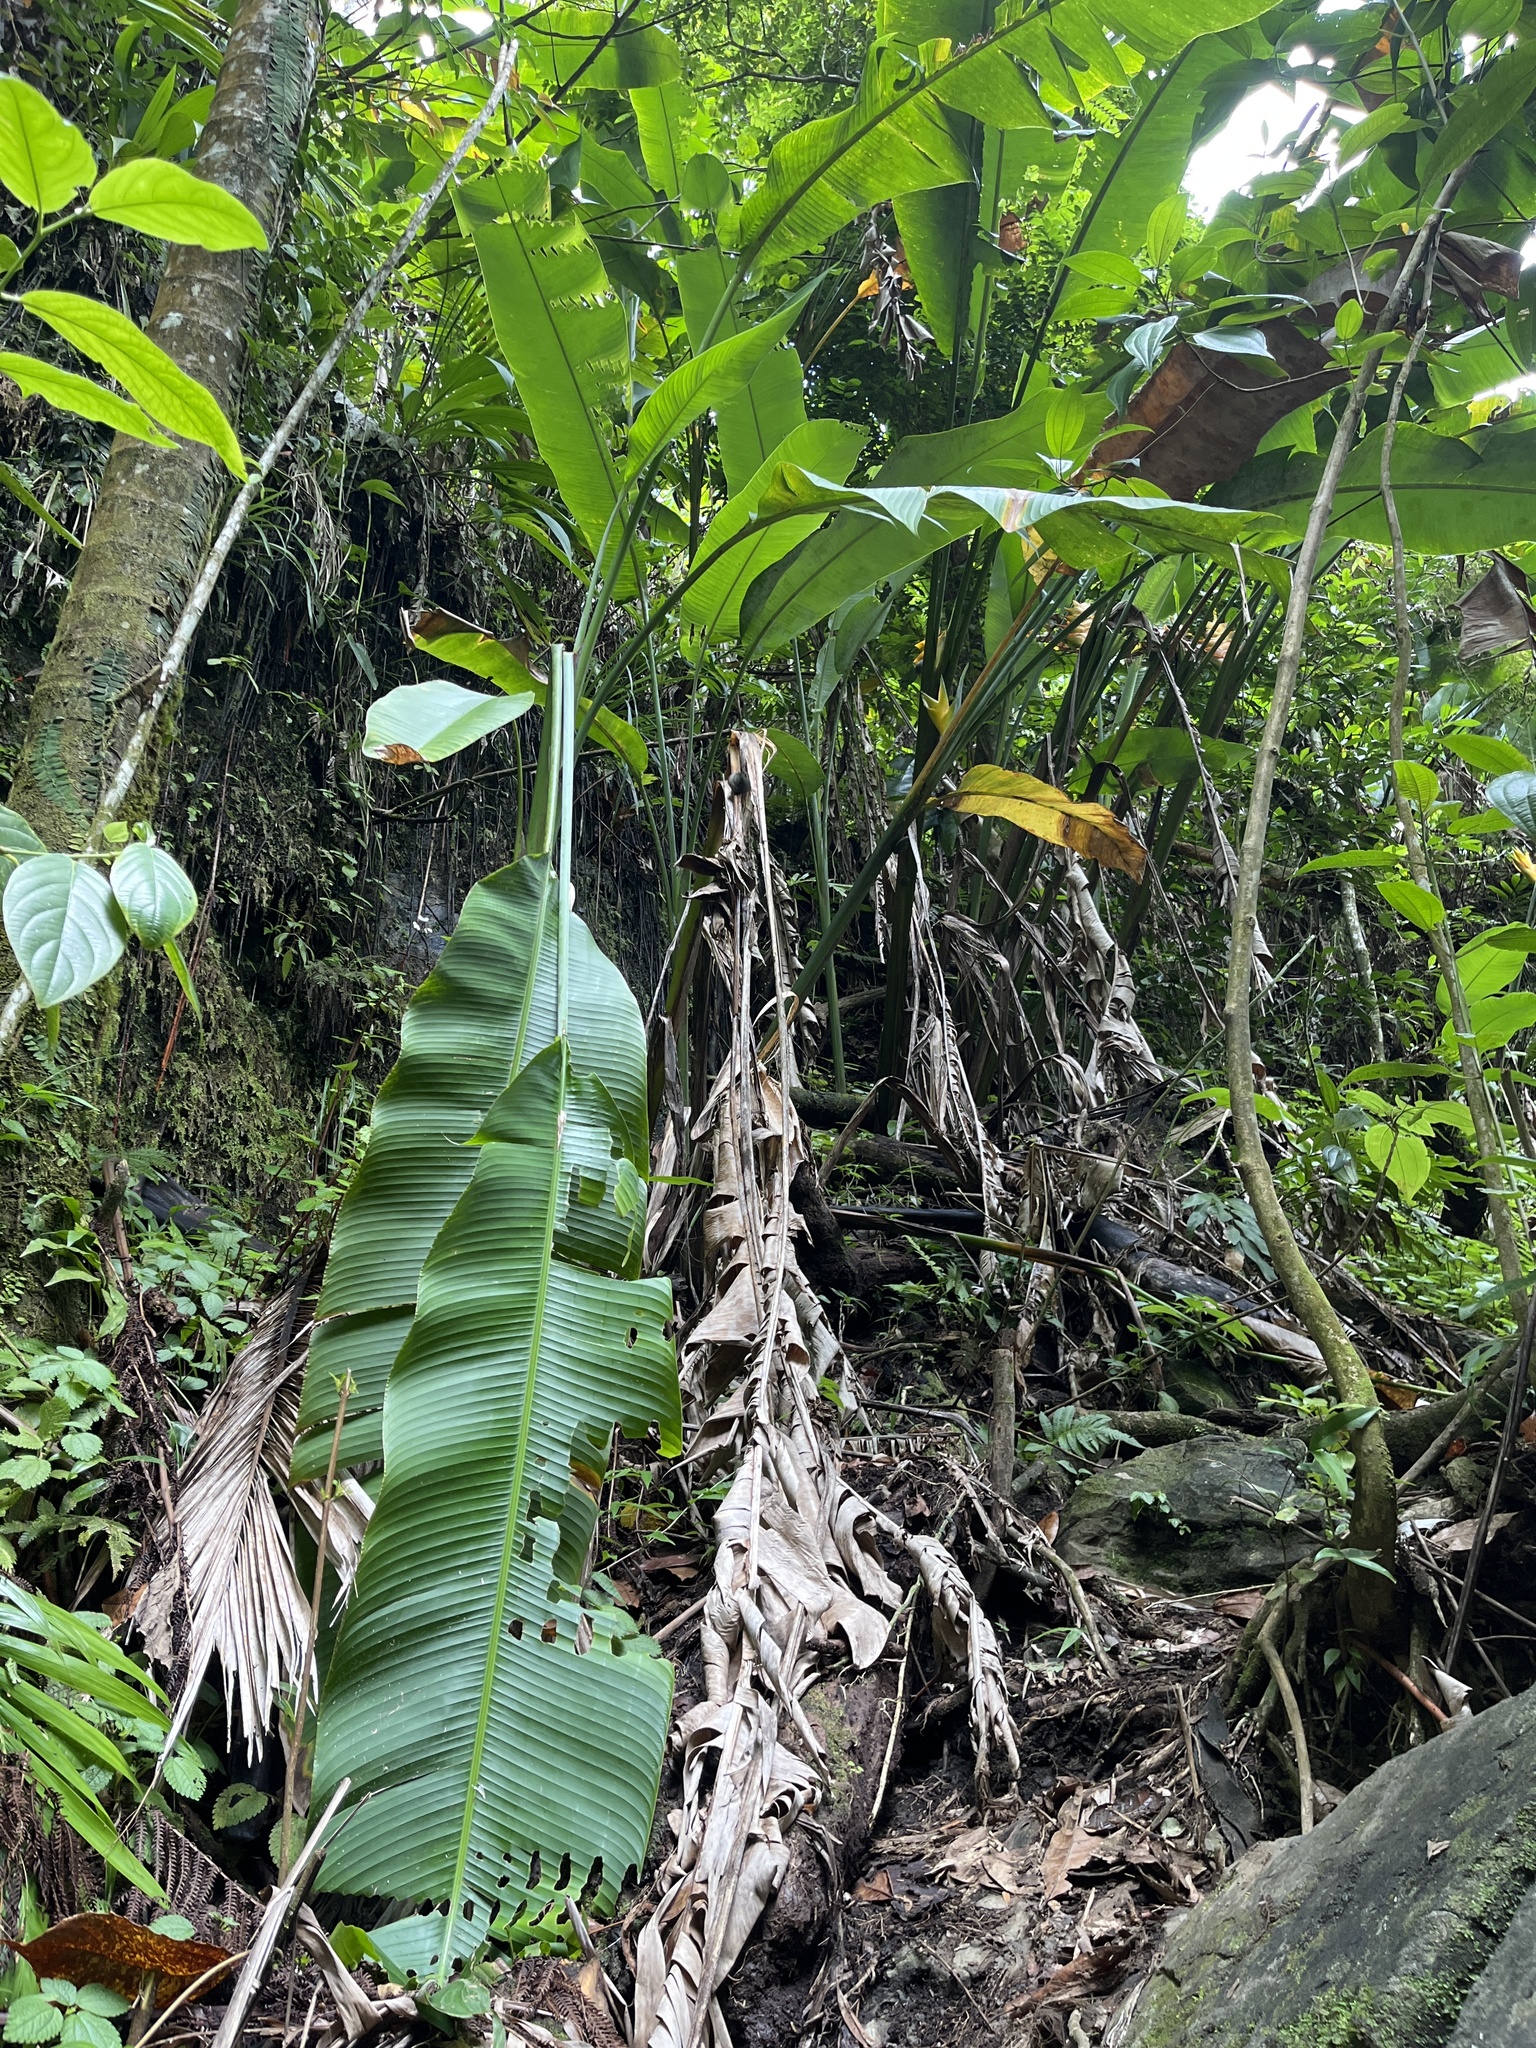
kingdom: Plantae
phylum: Tracheophyta
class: Liliopsida
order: Zingiberales
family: Heliconiaceae
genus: Heliconia
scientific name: Heliconia caribaea
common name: Wild plantain
